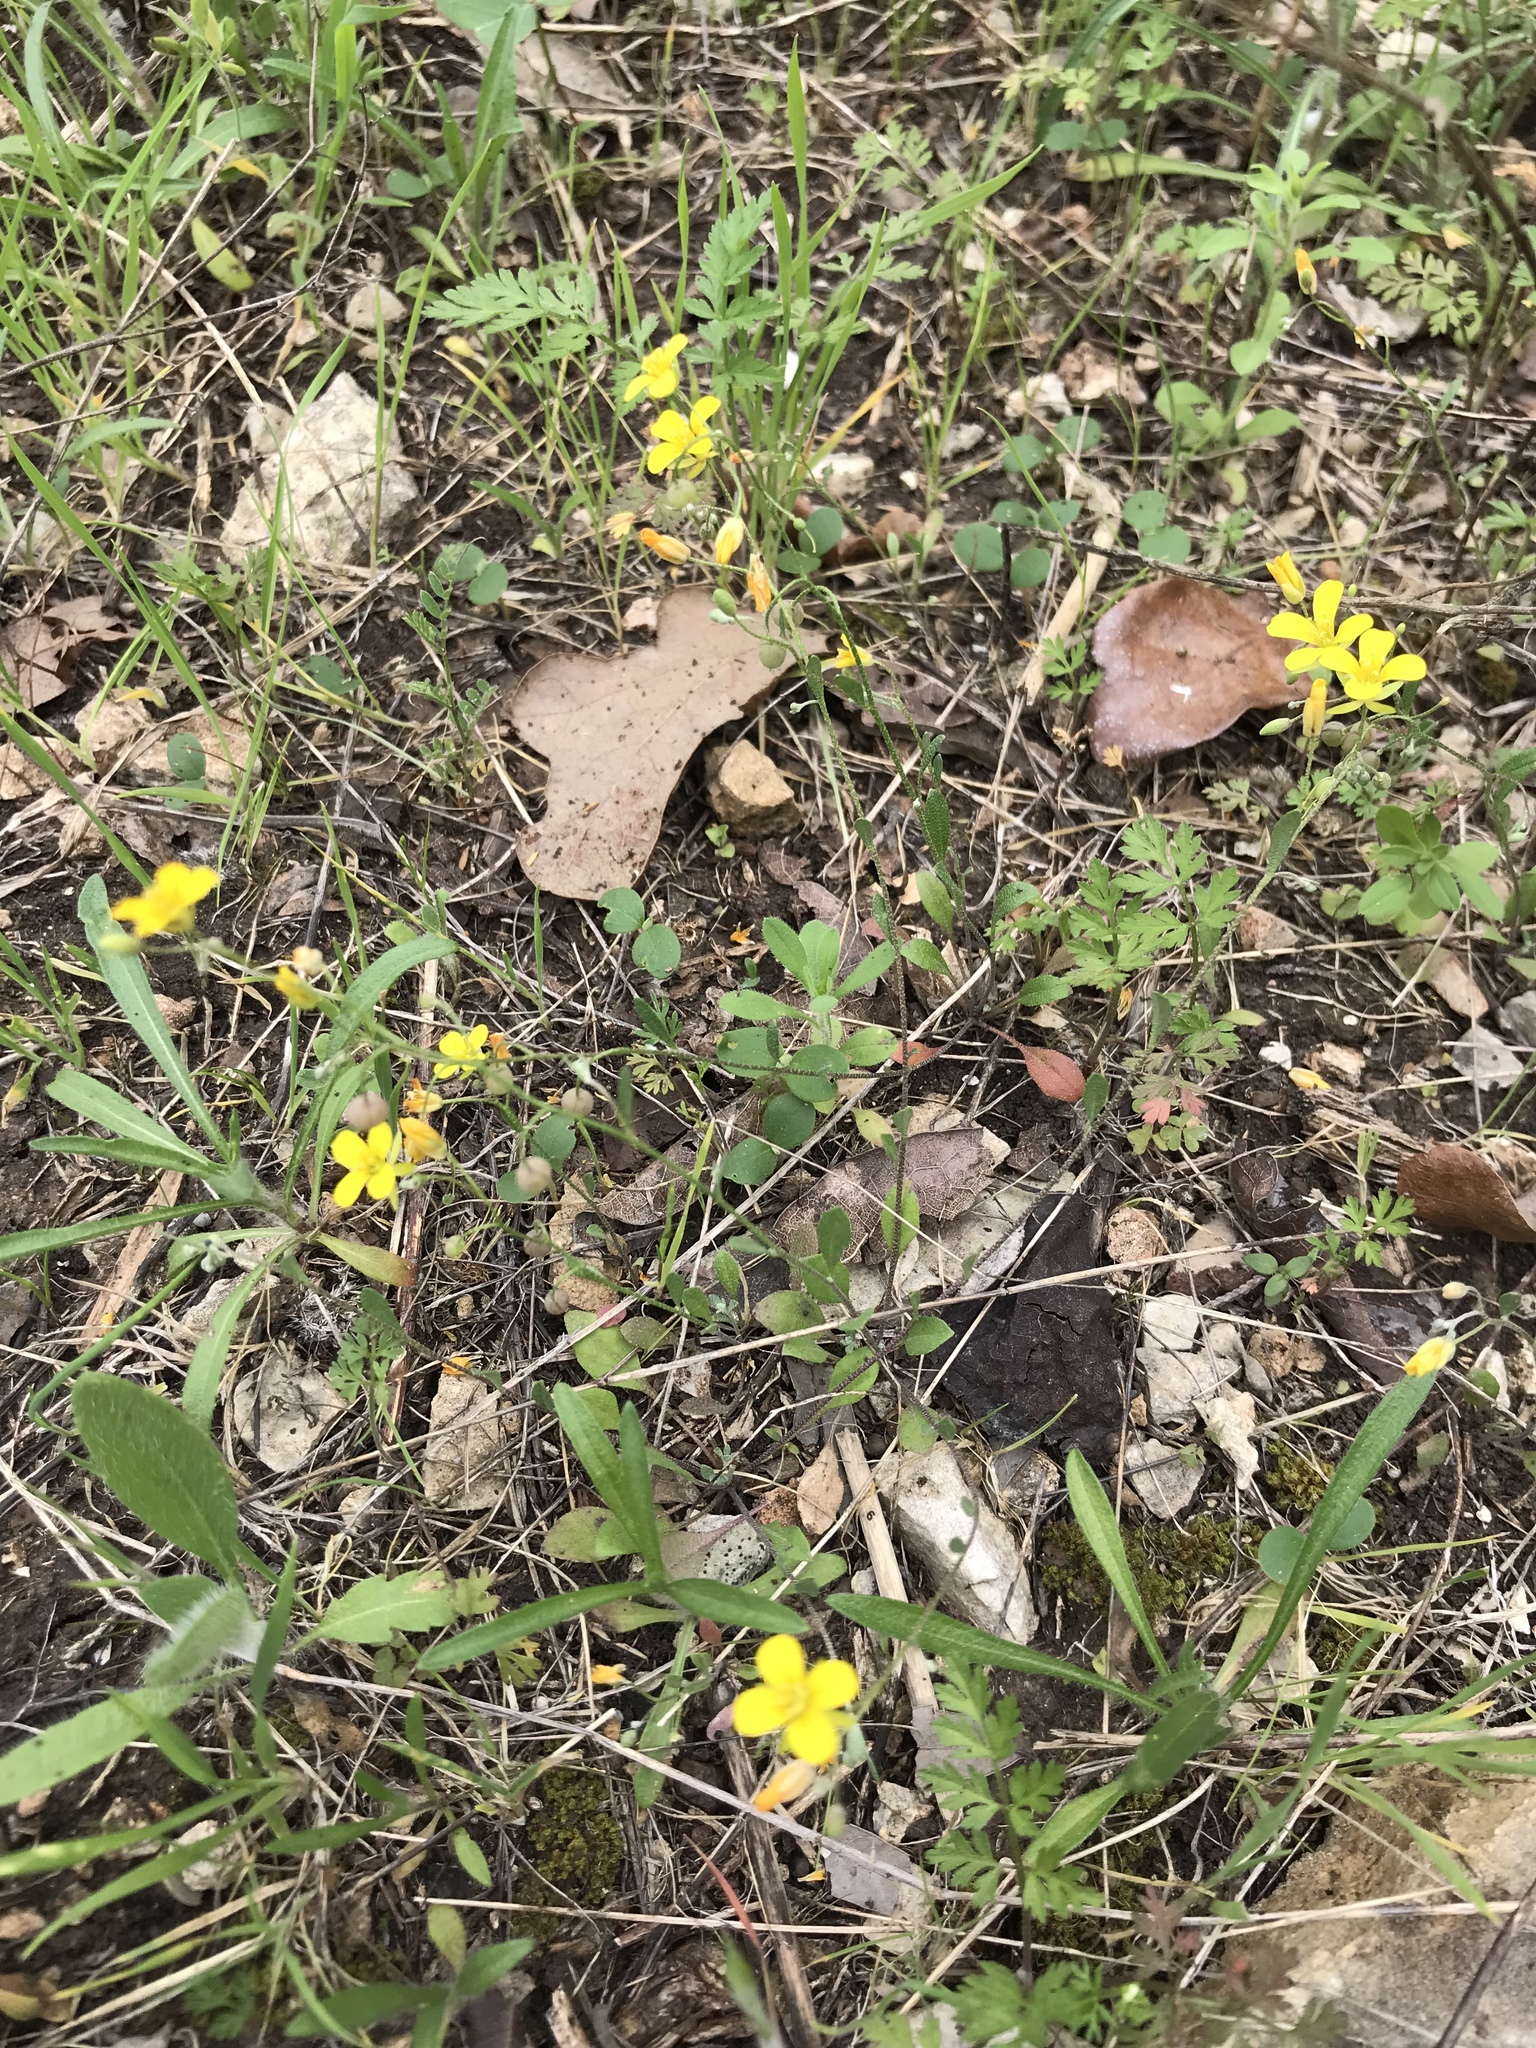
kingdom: Plantae
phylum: Tracheophyta
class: Magnoliopsida
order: Brassicales
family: Brassicaceae
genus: Physaria
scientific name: Physaria recurvata
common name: Gaslight bladderpod
